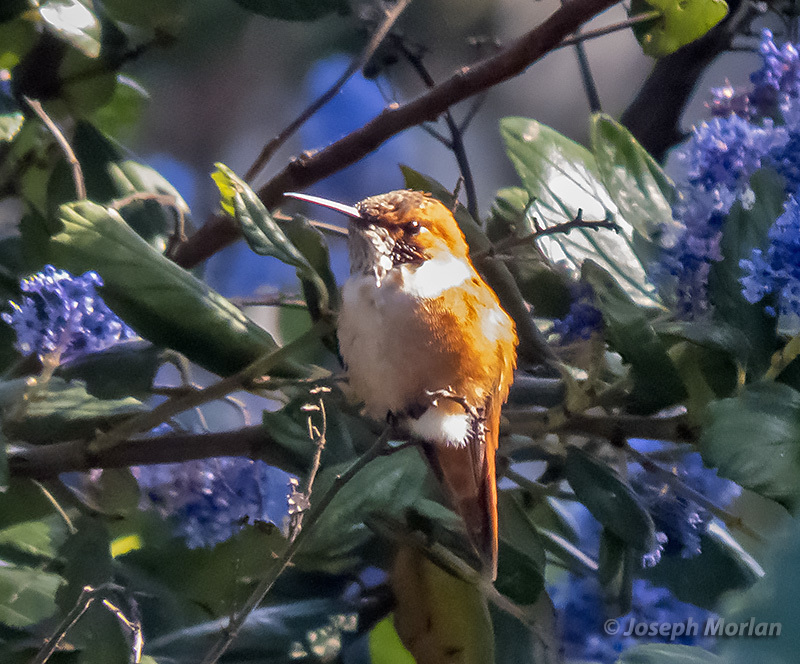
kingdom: Animalia
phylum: Chordata
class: Aves
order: Apodiformes
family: Trochilidae
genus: Selasphorus
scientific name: Selasphorus rufus
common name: Rufous hummingbird
